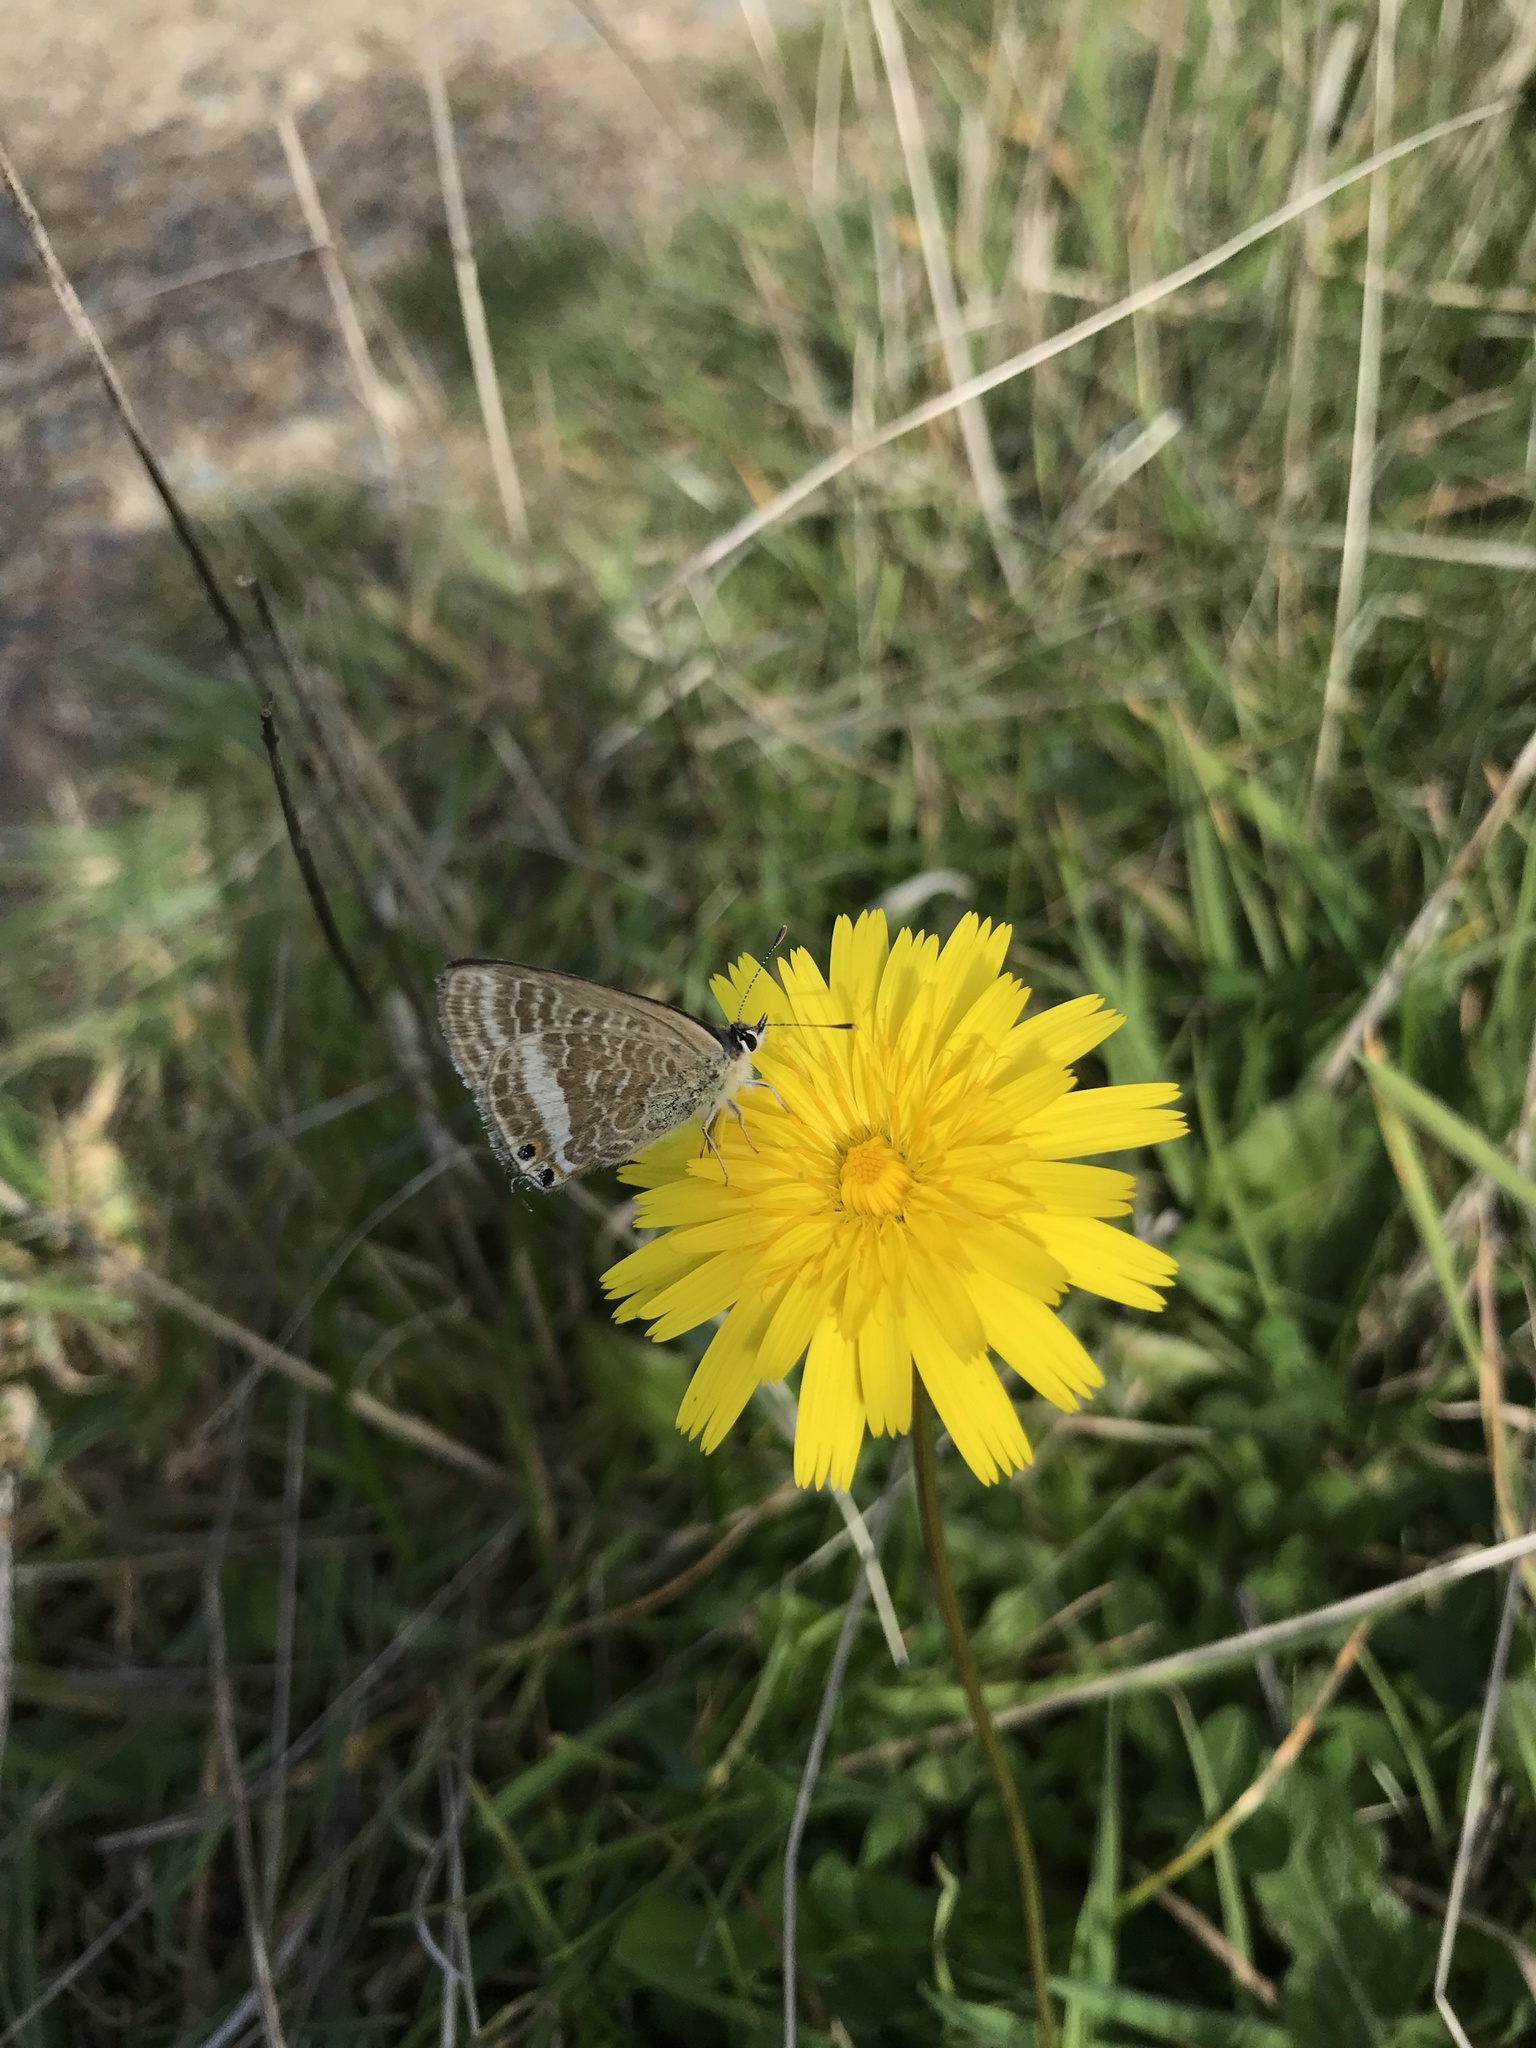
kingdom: Animalia
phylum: Arthropoda
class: Insecta
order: Lepidoptera
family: Lycaenidae
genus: Lampides
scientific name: Lampides boeticus
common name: Long-tailed blue
